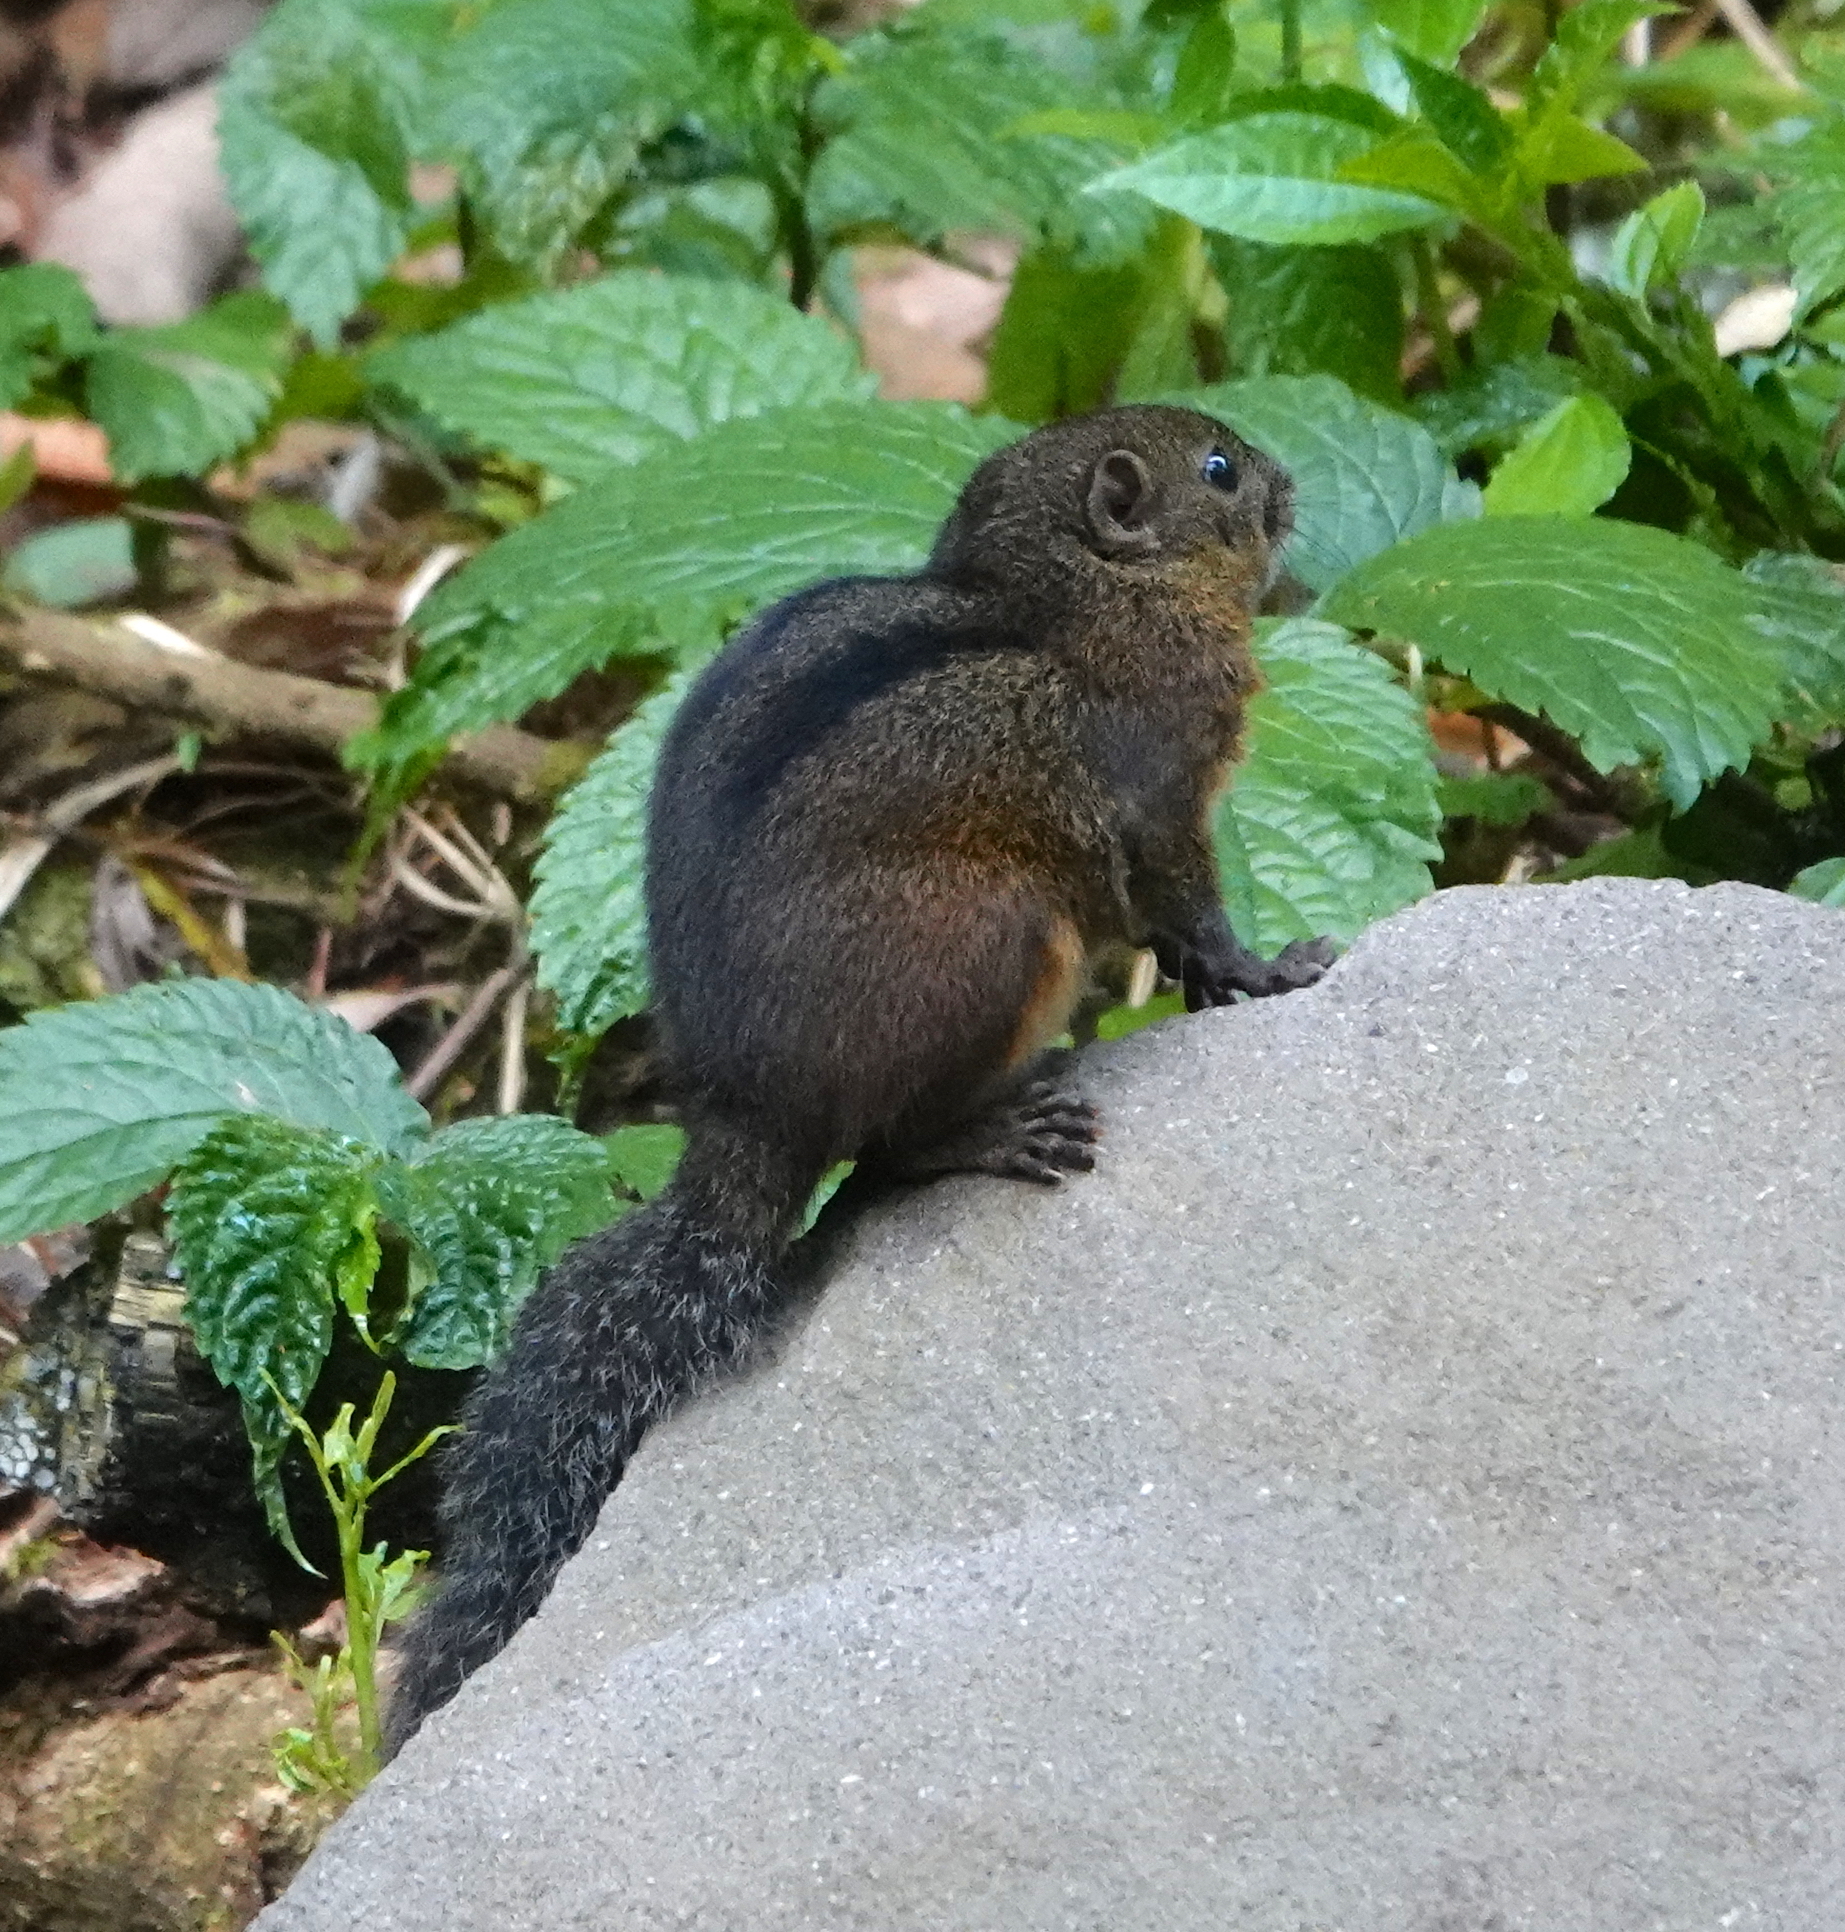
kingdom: Animalia
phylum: Chordata
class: Mammalia
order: Rodentia
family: Sciuridae
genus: Lariscus
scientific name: Lariscus insignis
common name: Three-striped ground squirrel
